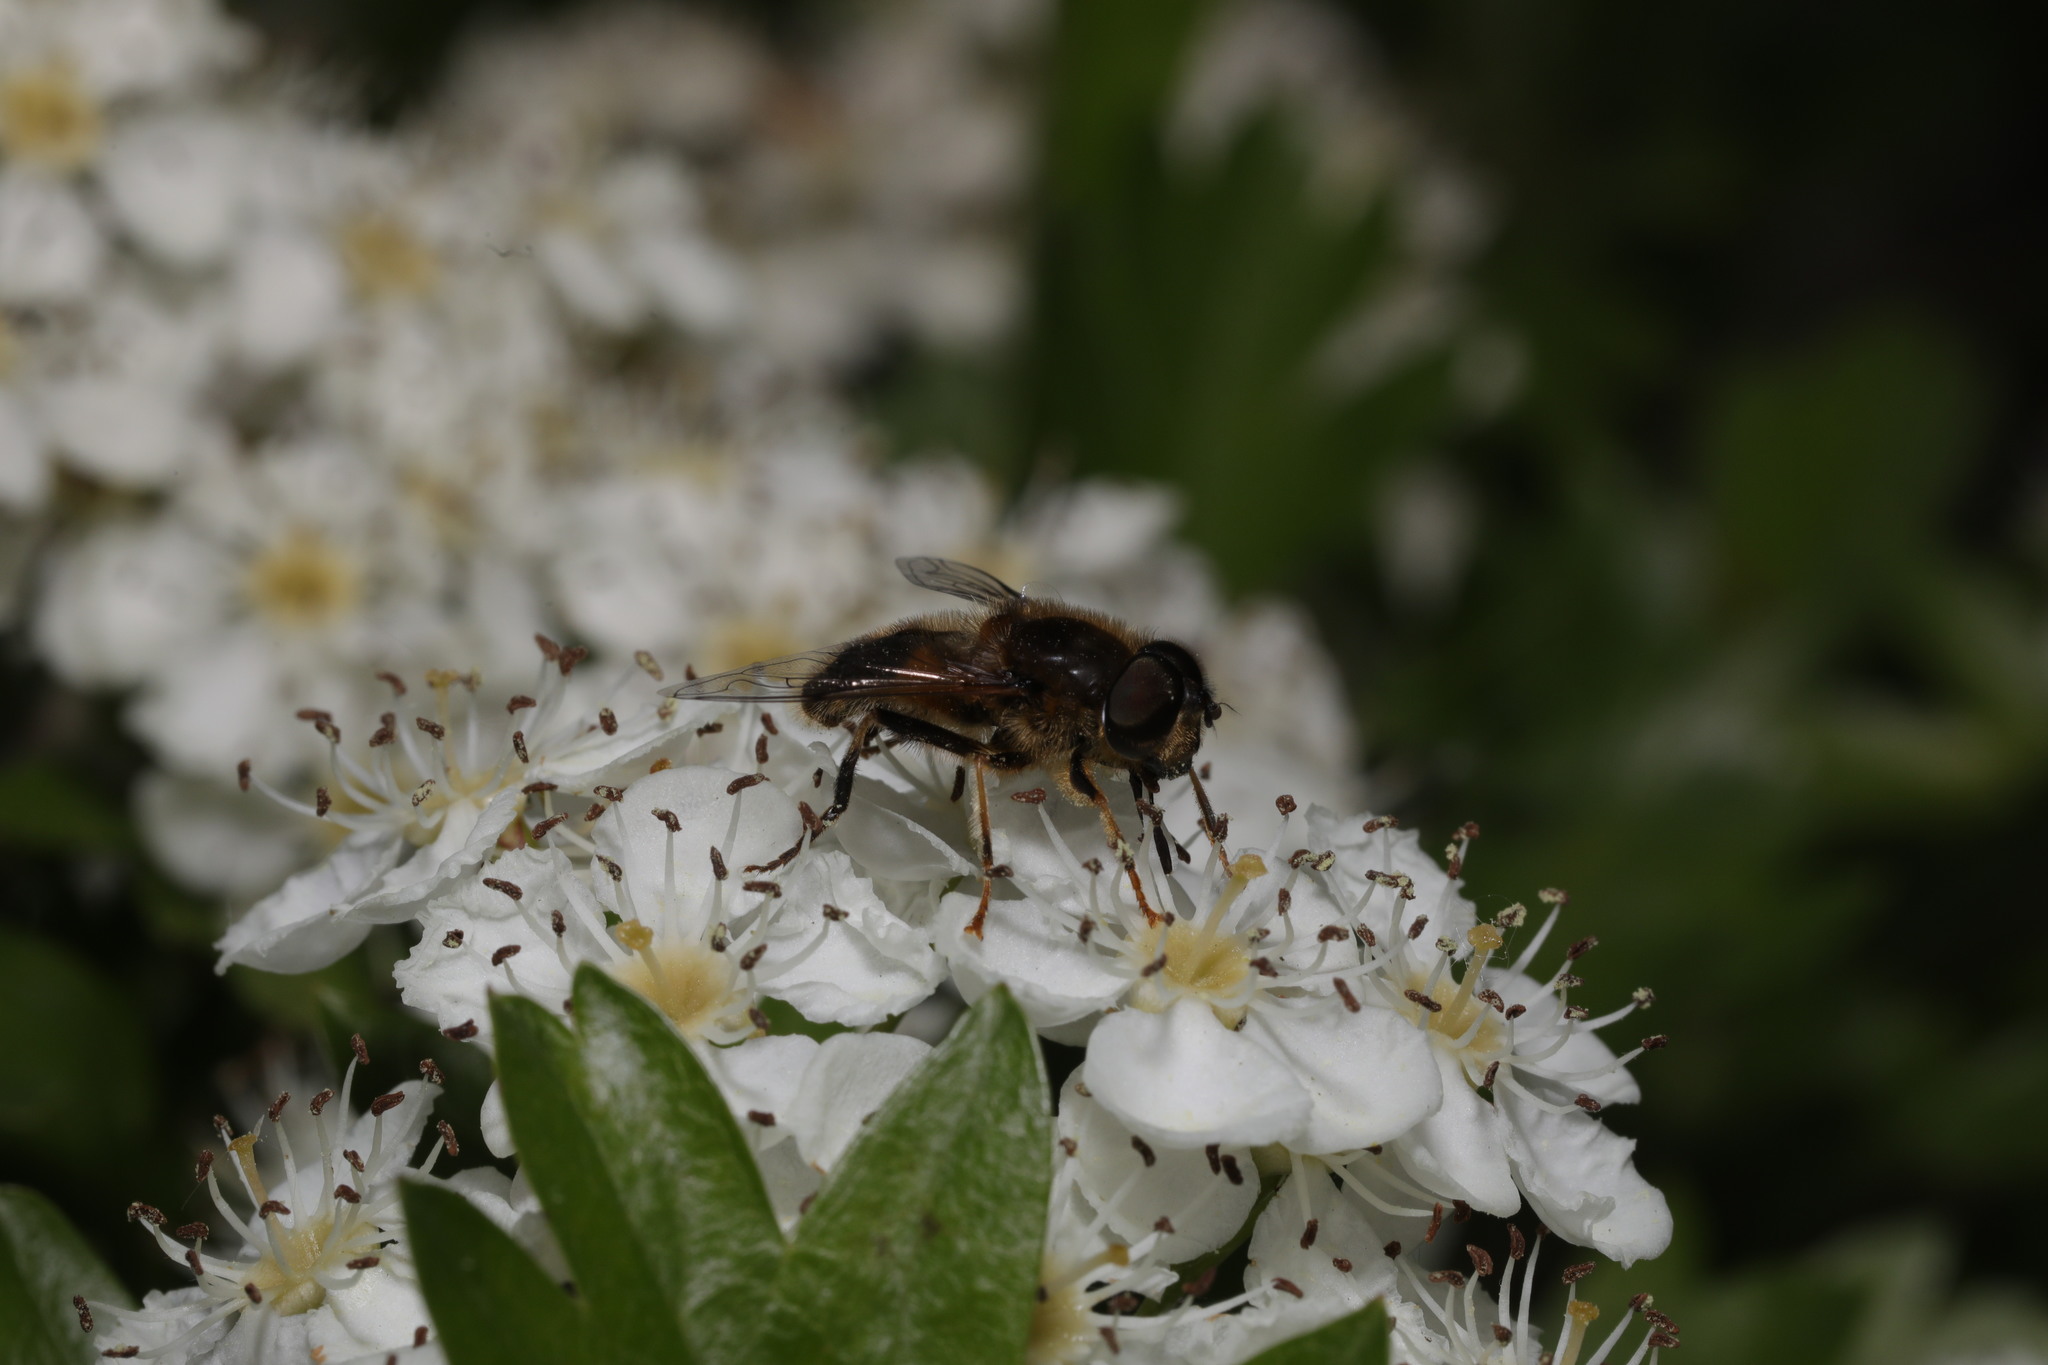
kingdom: Animalia
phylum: Arthropoda
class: Insecta
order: Diptera
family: Syrphidae
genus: Eristalis
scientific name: Eristalis pertinax
